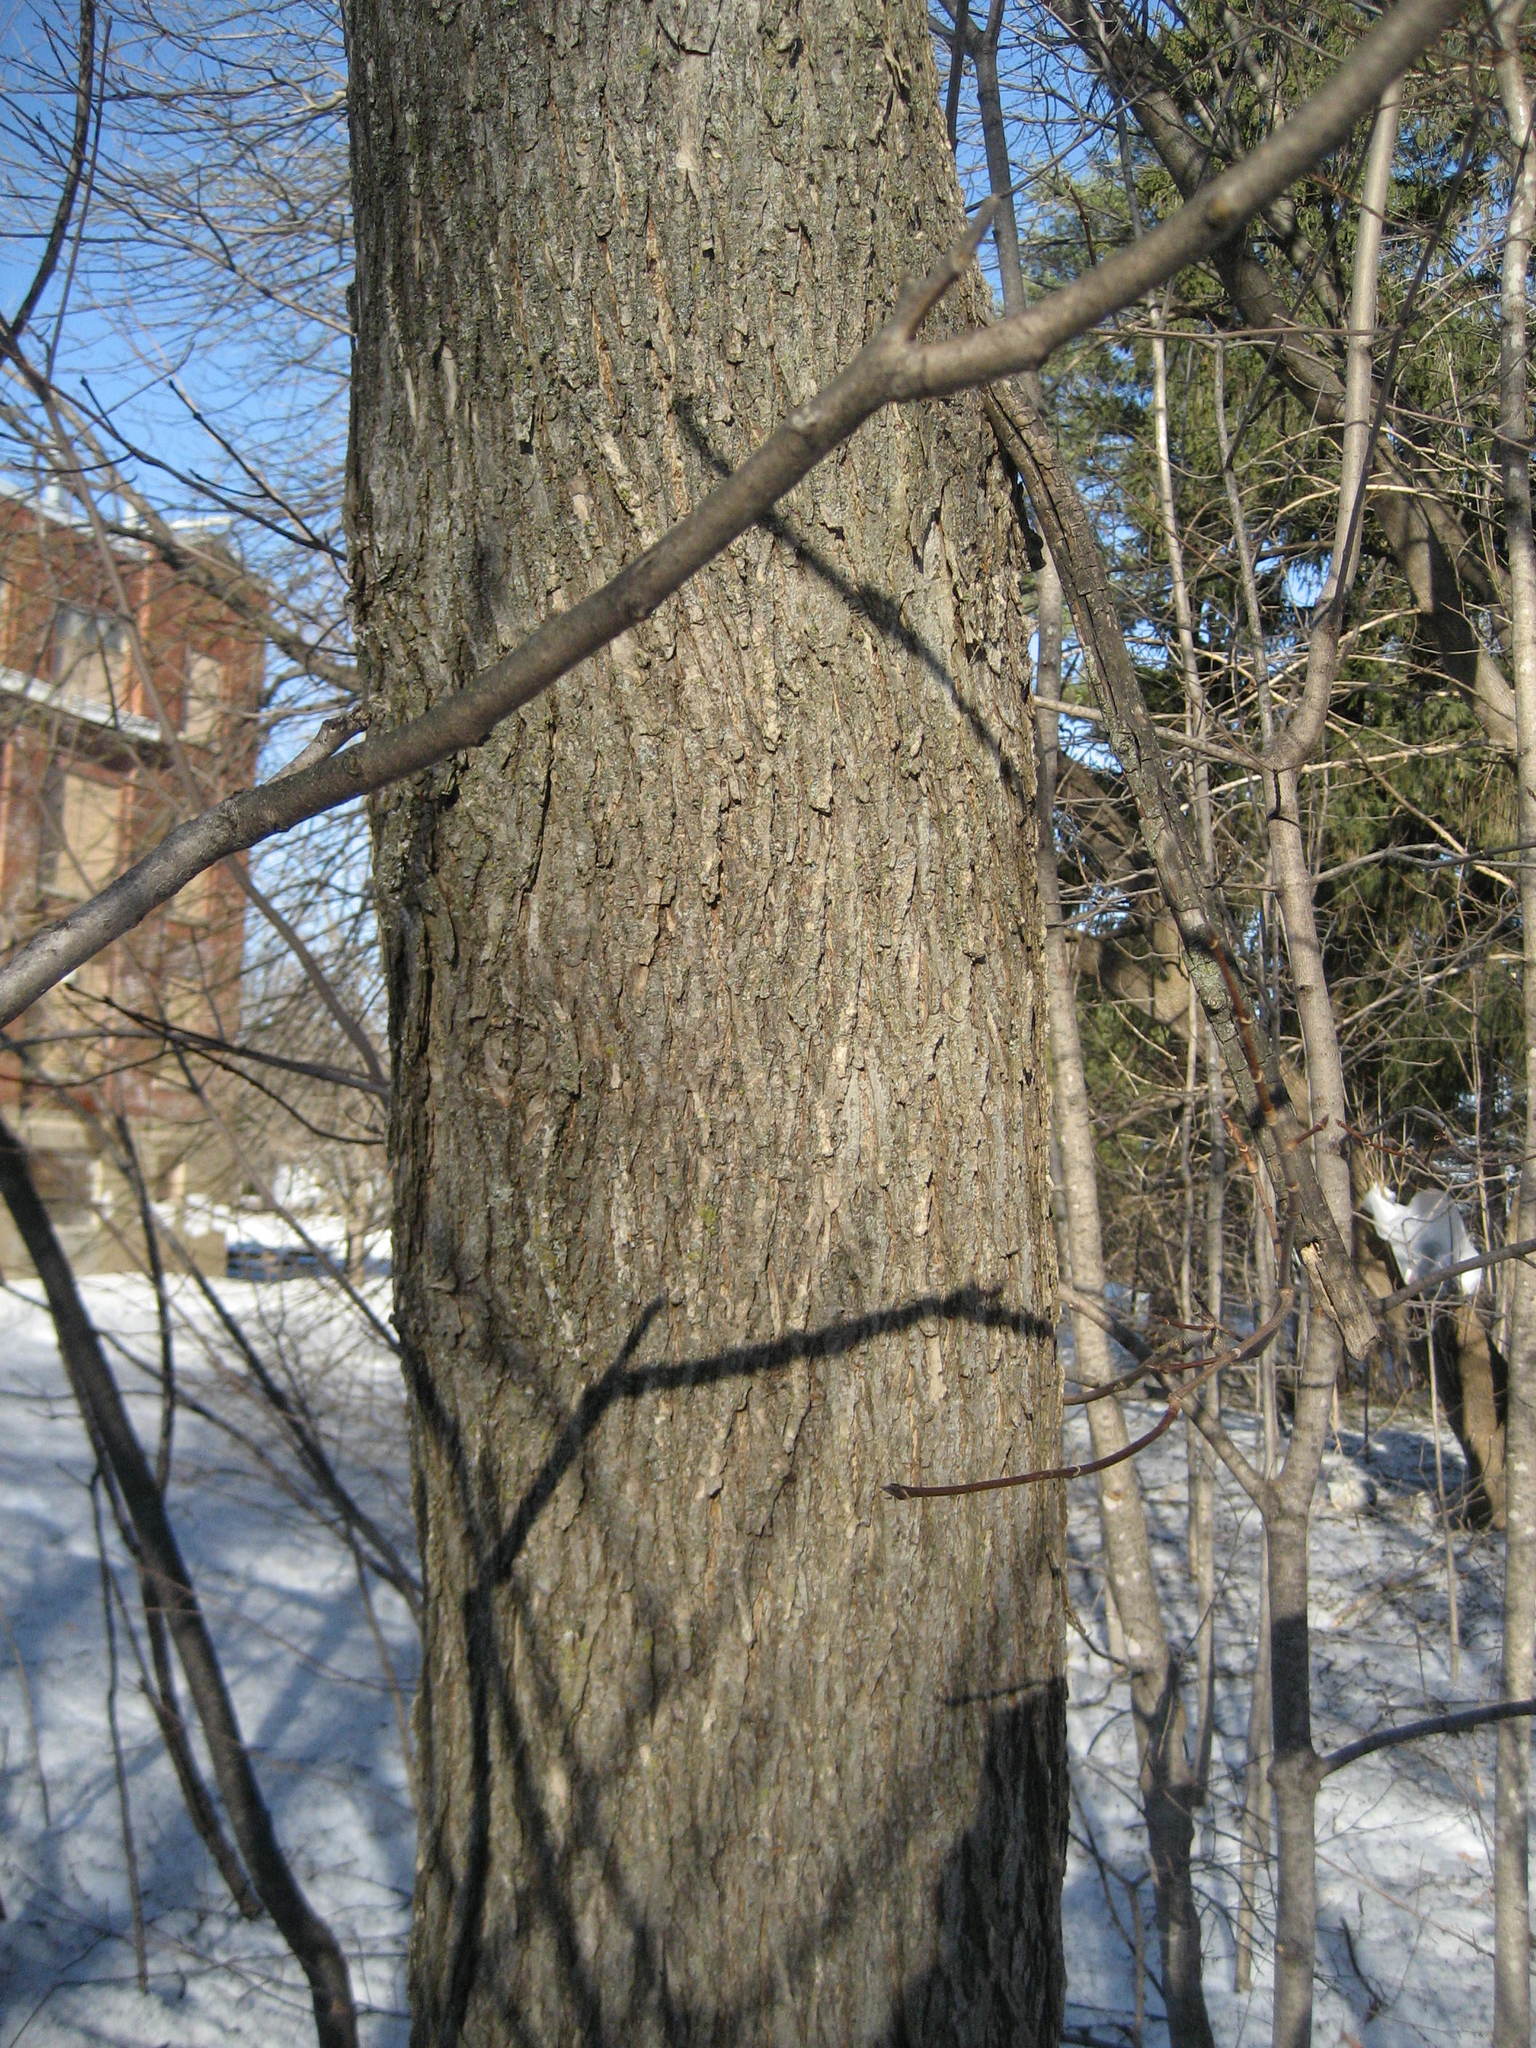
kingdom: Plantae
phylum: Tracheophyta
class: Magnoliopsida
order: Rosales
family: Ulmaceae
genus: Ulmus
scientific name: Ulmus americana
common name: American elm
